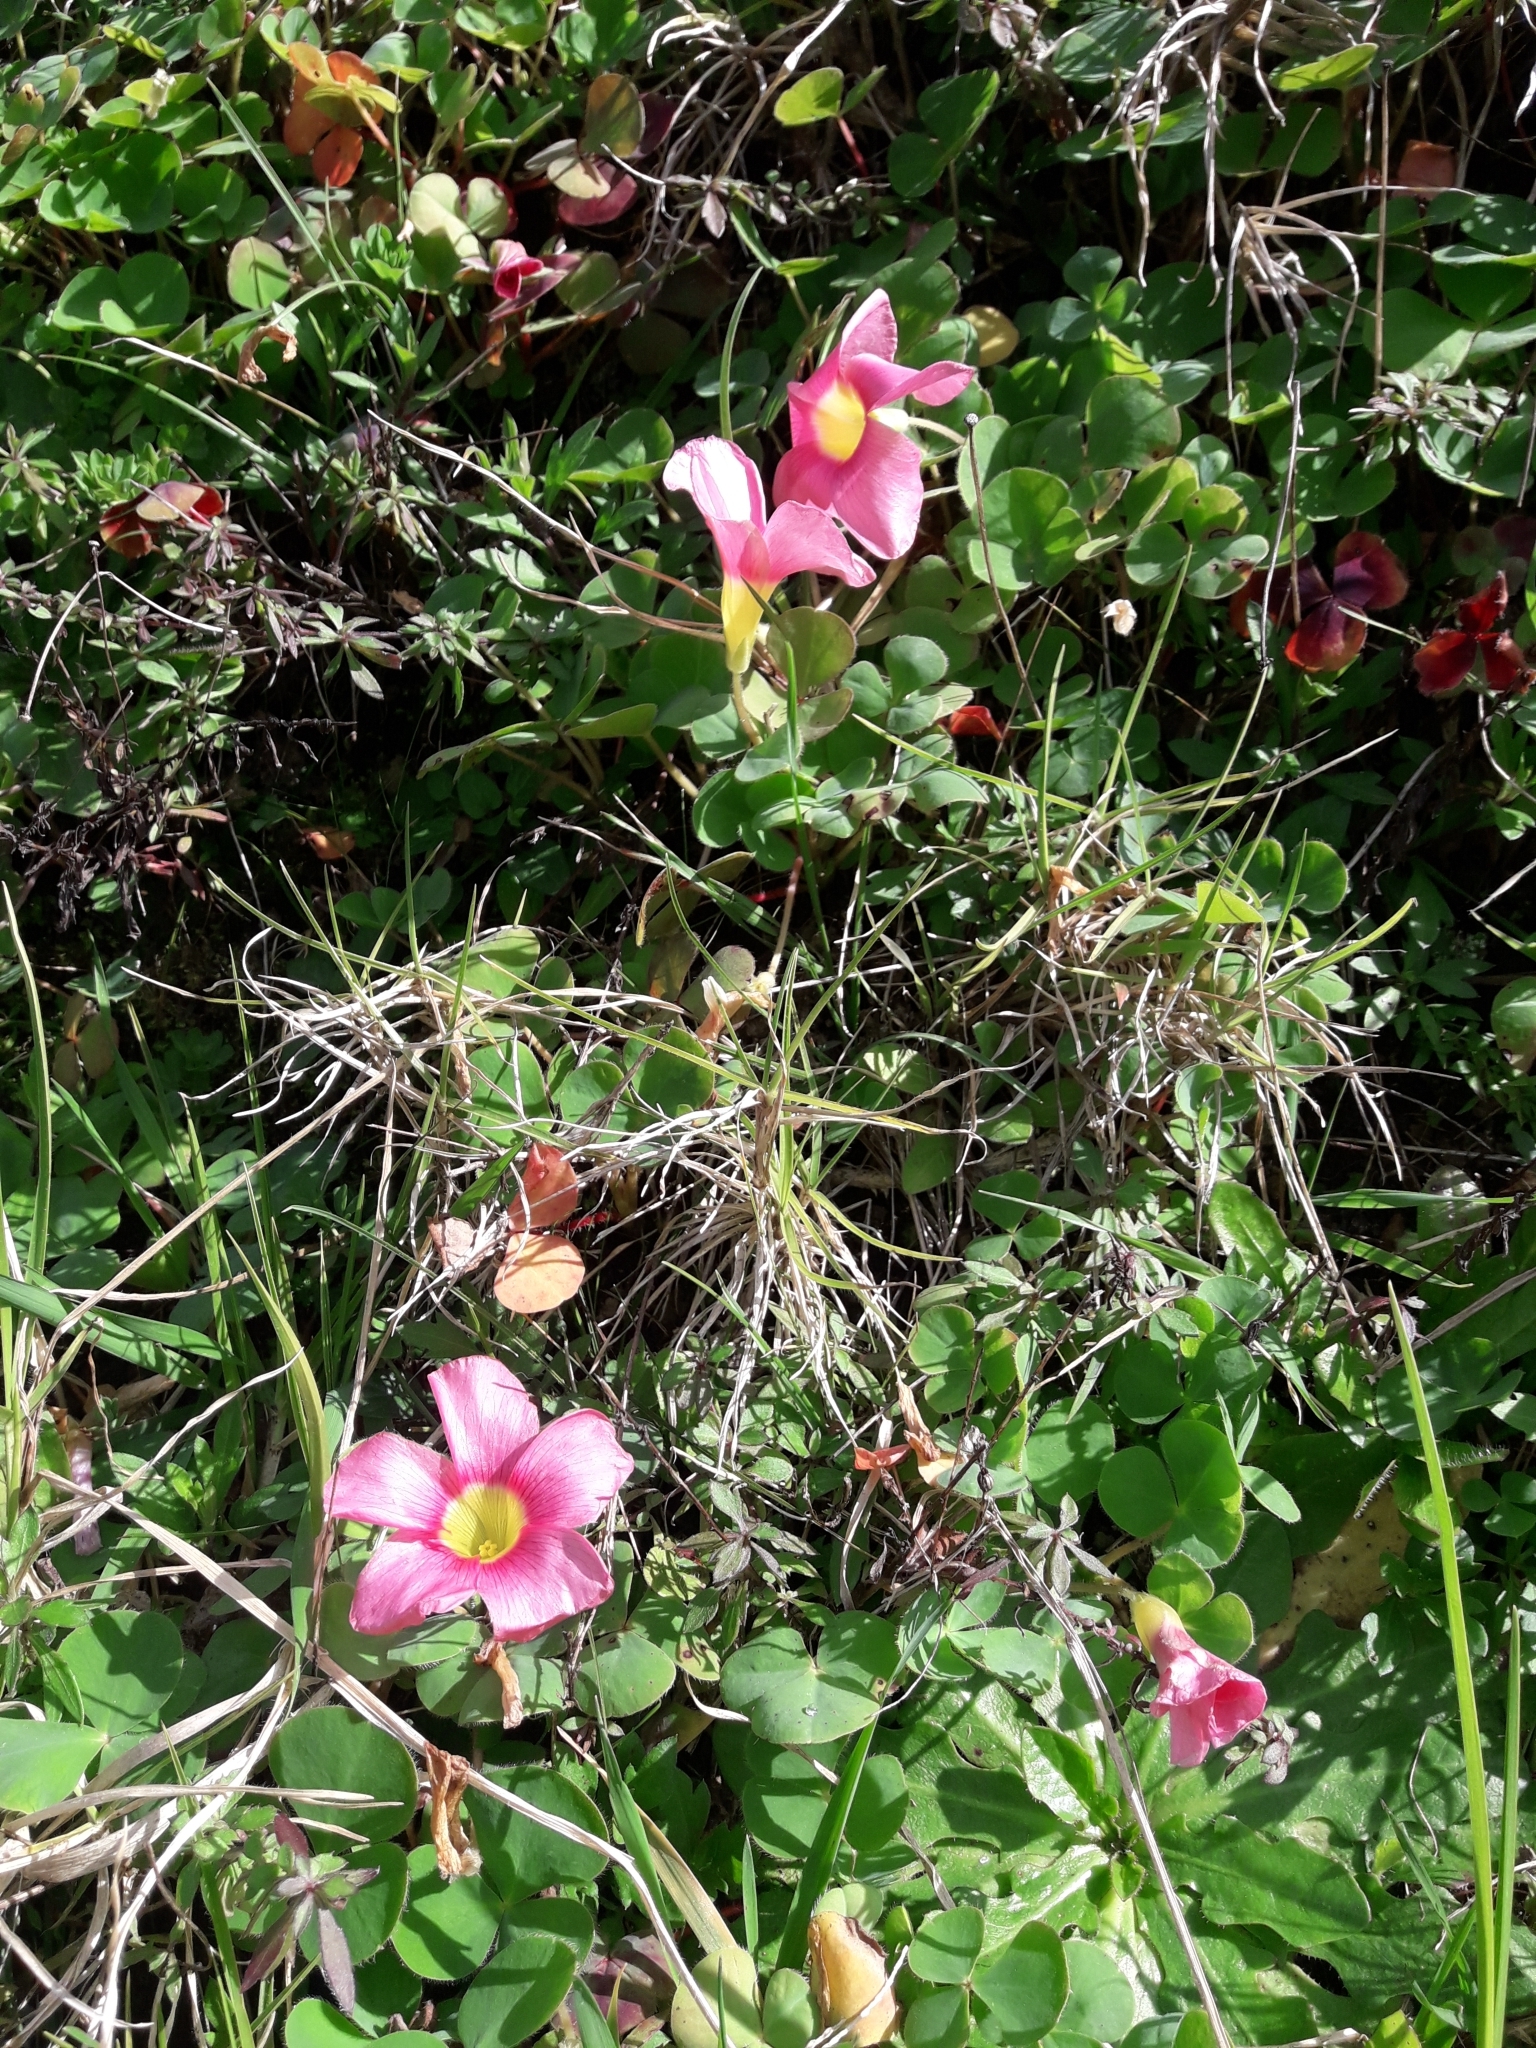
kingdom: Plantae
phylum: Tracheophyta
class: Magnoliopsida
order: Oxalidales
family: Oxalidaceae
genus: Oxalis
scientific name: Oxalis purpurea
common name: Purple woodsorrel
